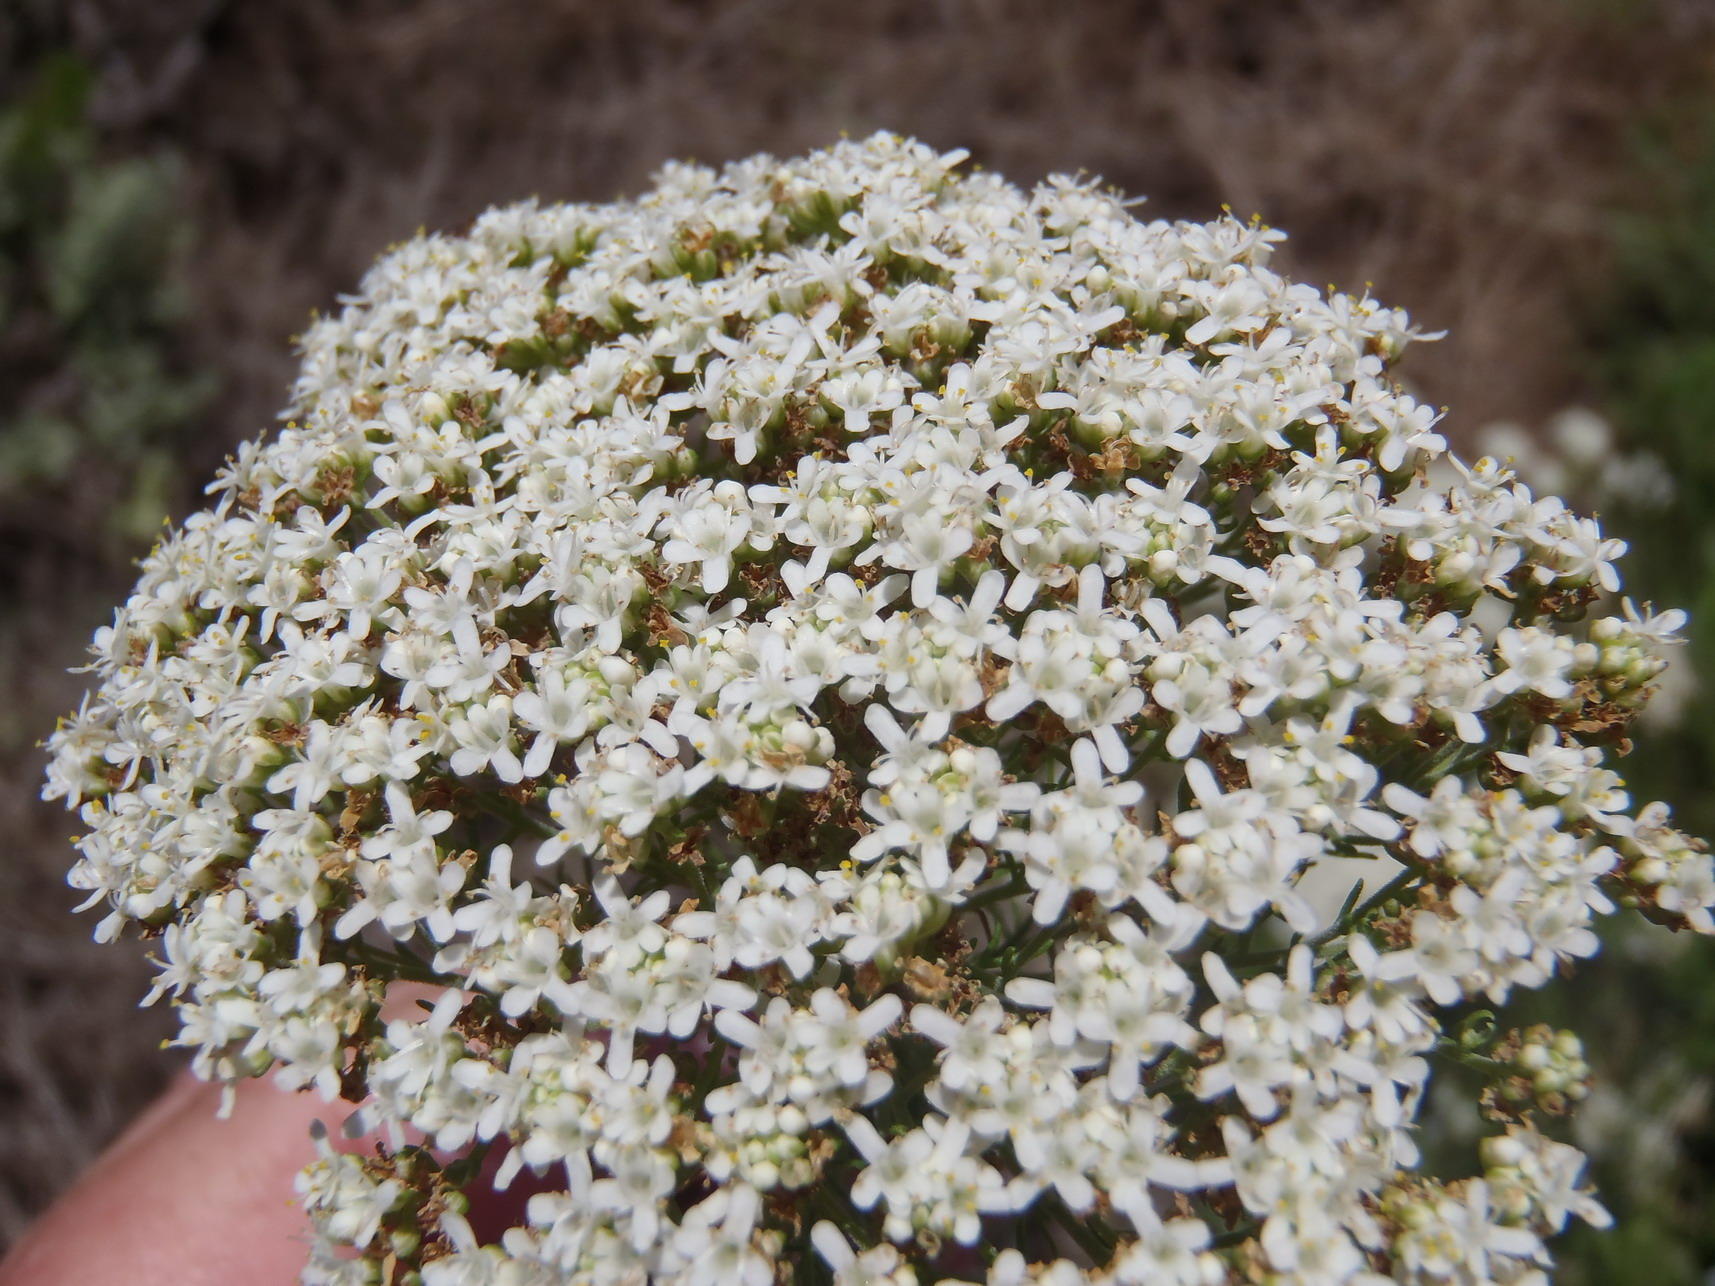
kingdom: Plantae
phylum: Tracheophyta
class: Magnoliopsida
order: Lamiales
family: Scrophulariaceae
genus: Selago
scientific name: Selago corymbosa
